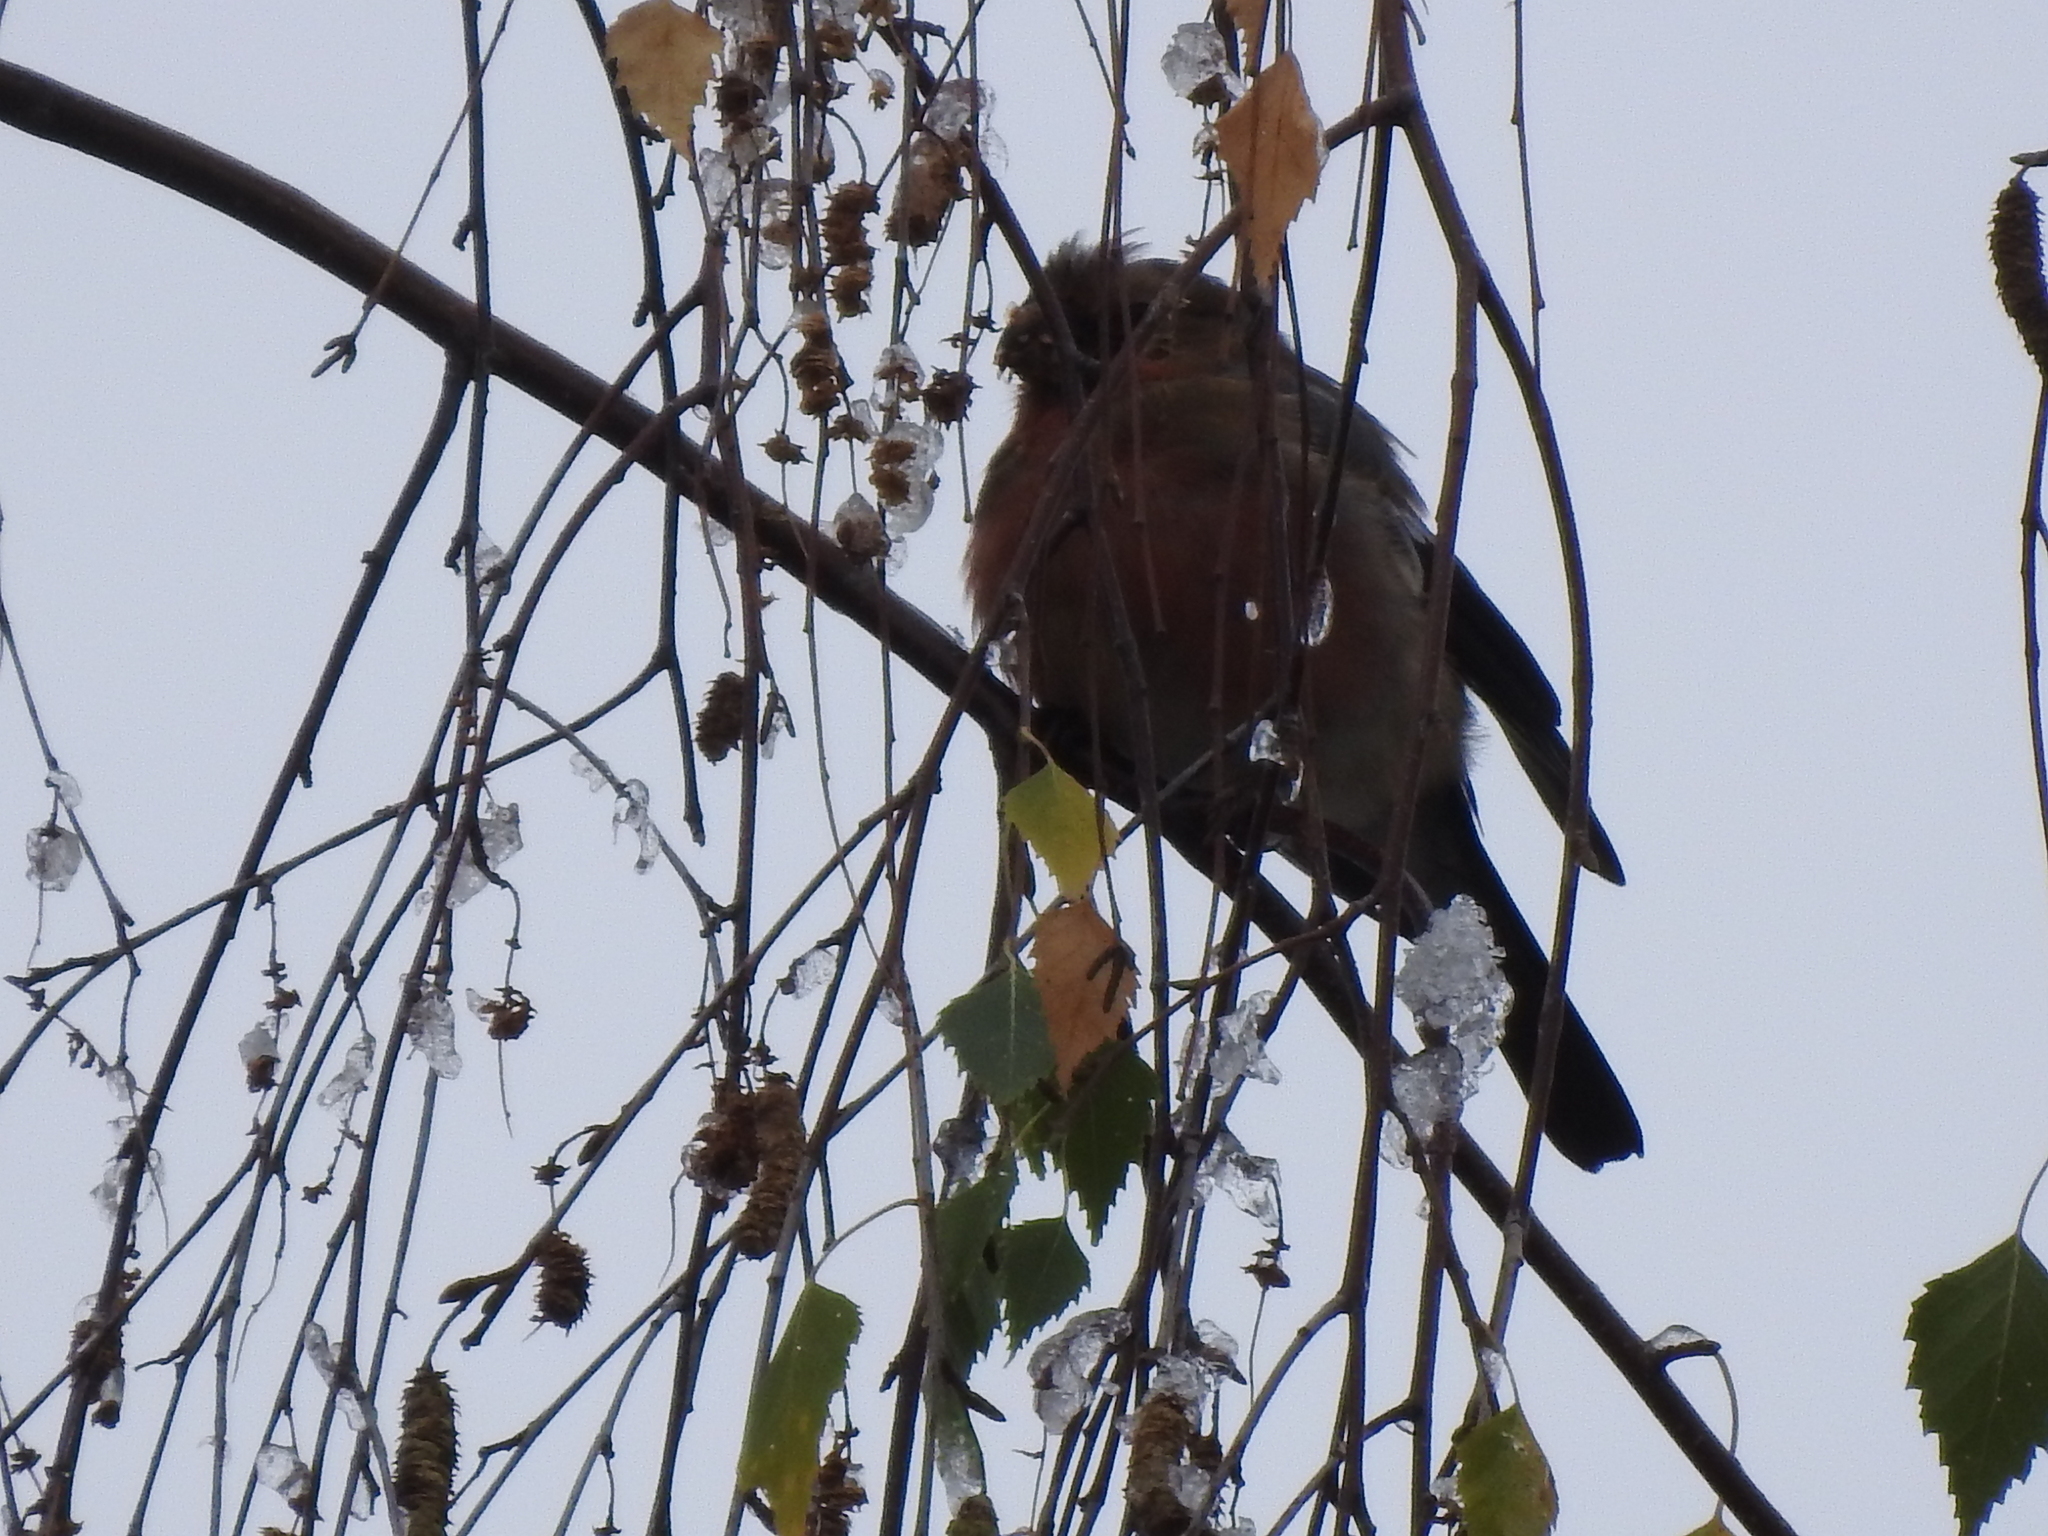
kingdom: Animalia
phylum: Chordata
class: Aves
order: Passeriformes
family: Fringillidae
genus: Pyrrhula
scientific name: Pyrrhula pyrrhula
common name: Eurasian bullfinch
